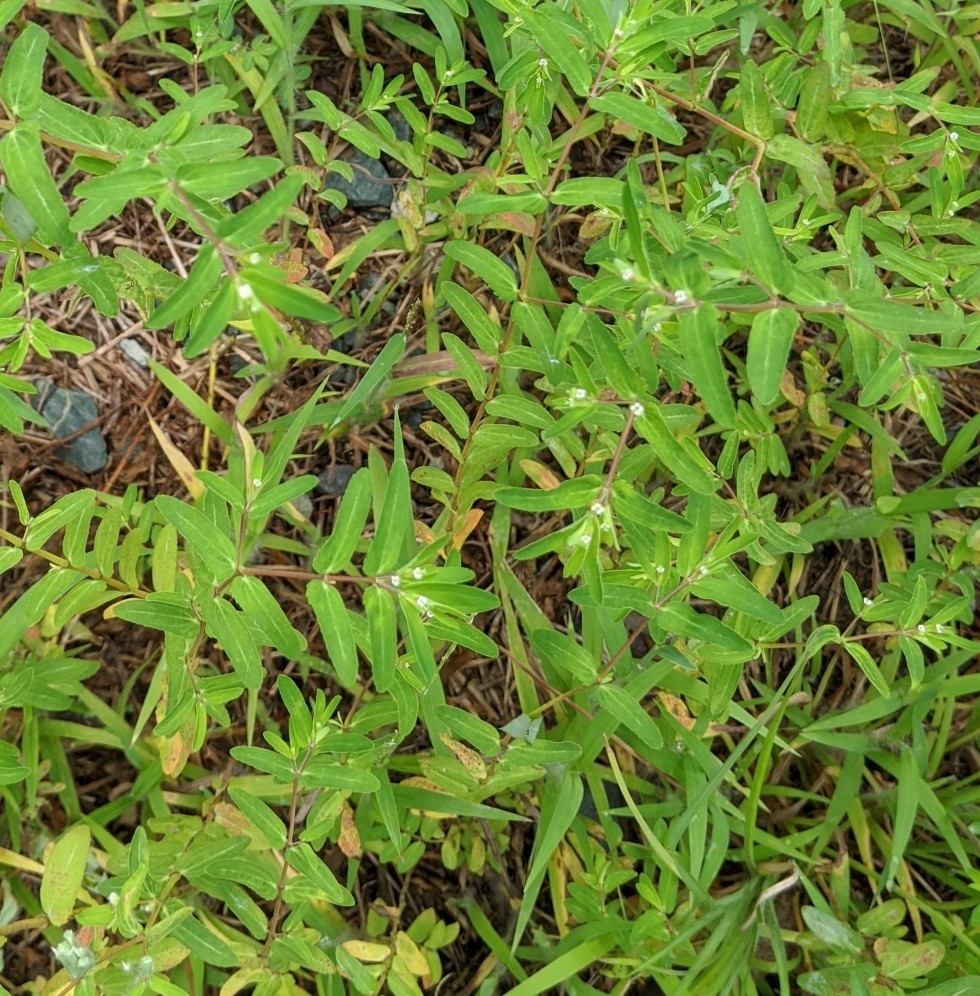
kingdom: Plantae
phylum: Tracheophyta
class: Magnoliopsida
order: Malpighiales
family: Euphorbiaceae
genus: Euphorbia
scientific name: Euphorbia nutans
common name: Eyebane
